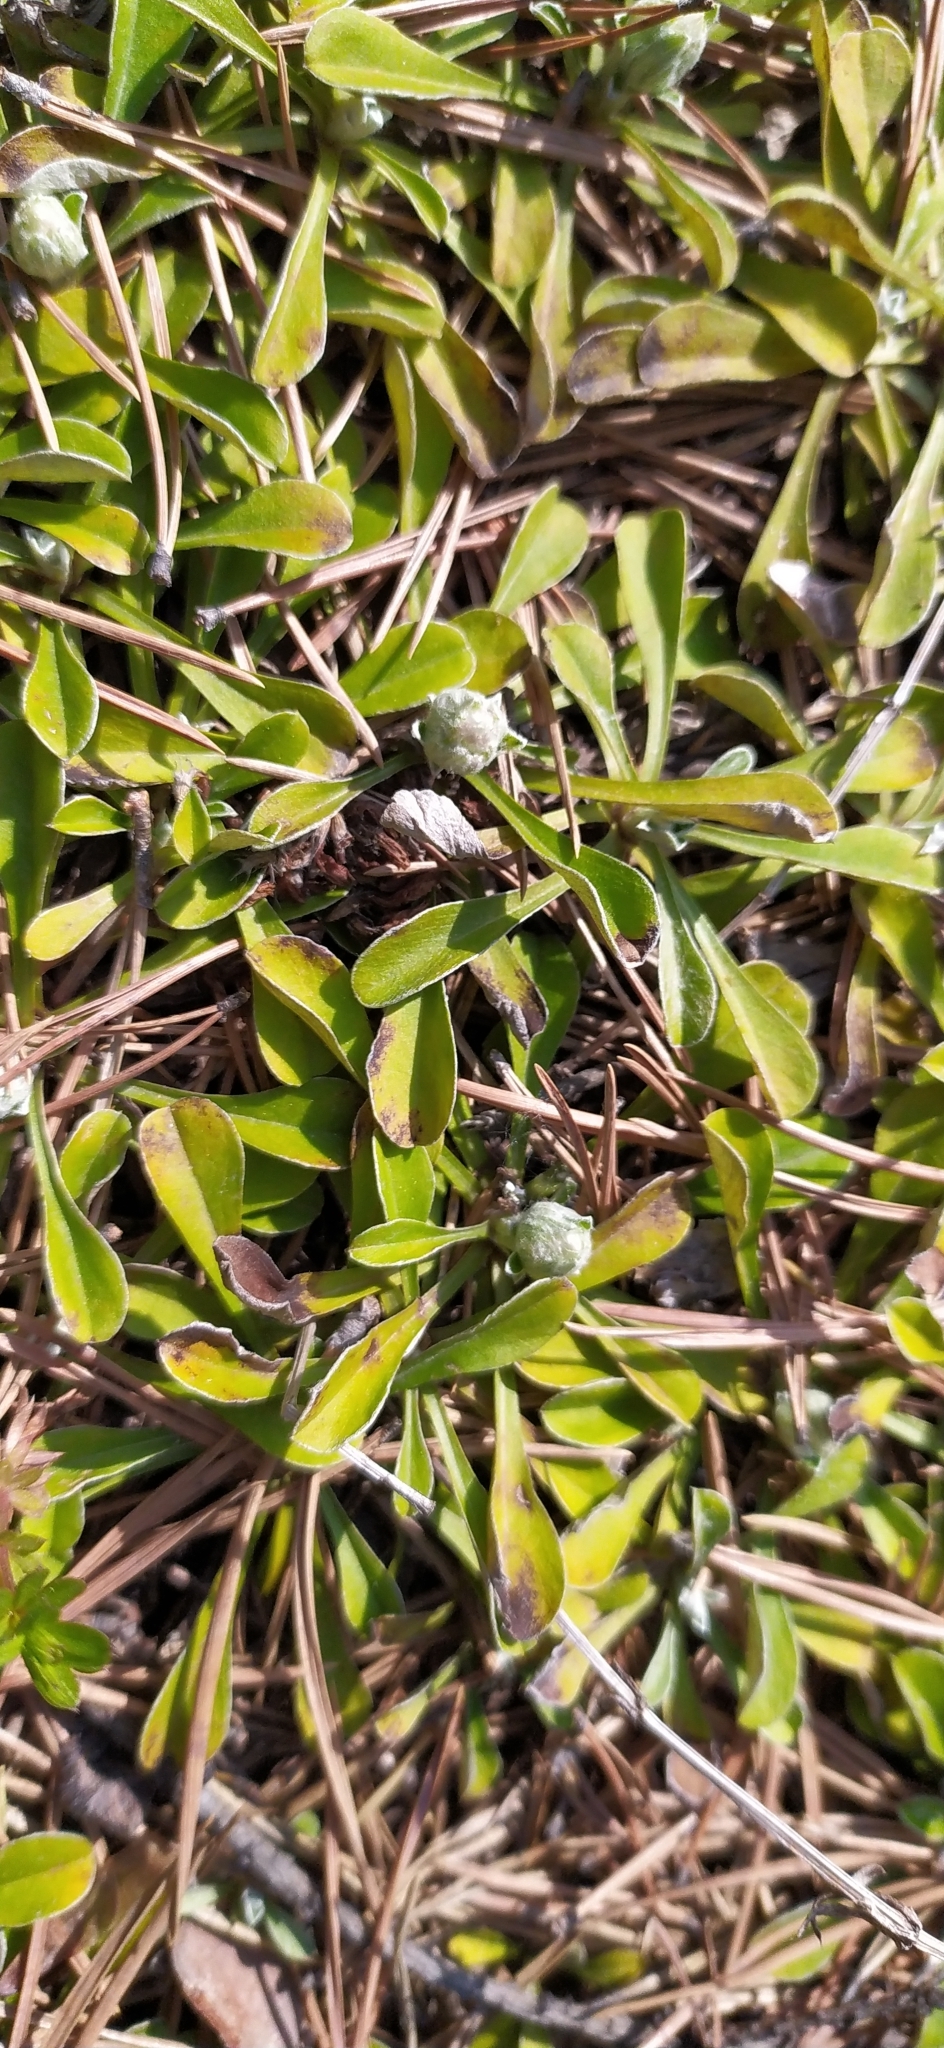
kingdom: Plantae
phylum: Tracheophyta
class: Magnoliopsida
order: Asterales
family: Asteraceae
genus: Antennaria
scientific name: Antennaria dioica
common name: Mountain everlasting
